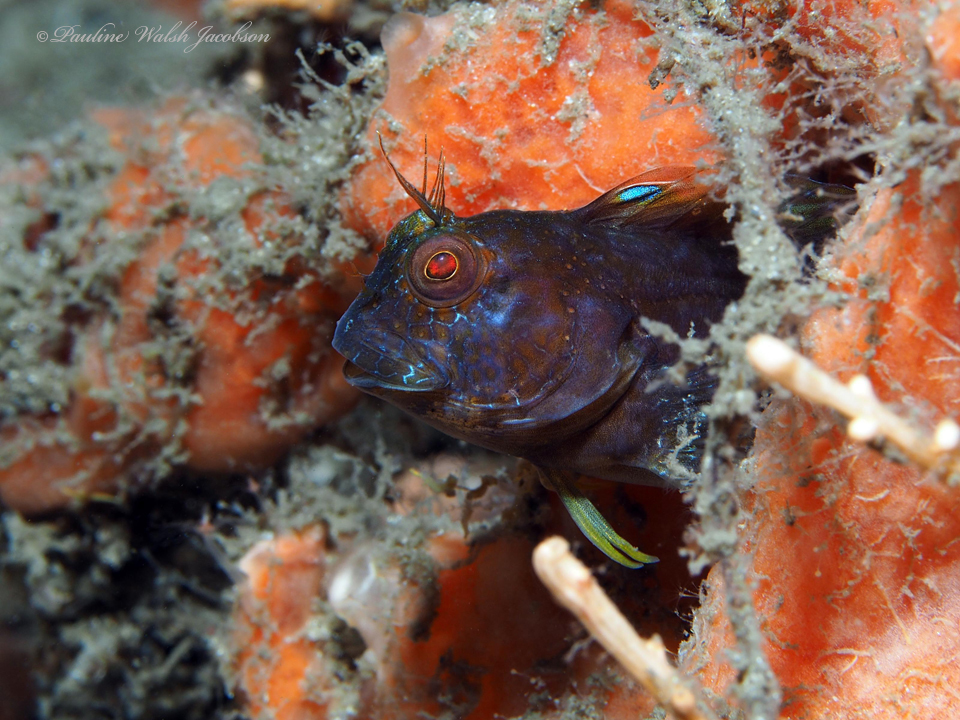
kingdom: Animalia
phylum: Chordata
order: Perciformes
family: Blenniidae
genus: Parablennius
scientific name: Parablennius marmoreus
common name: Seaweed blenny
